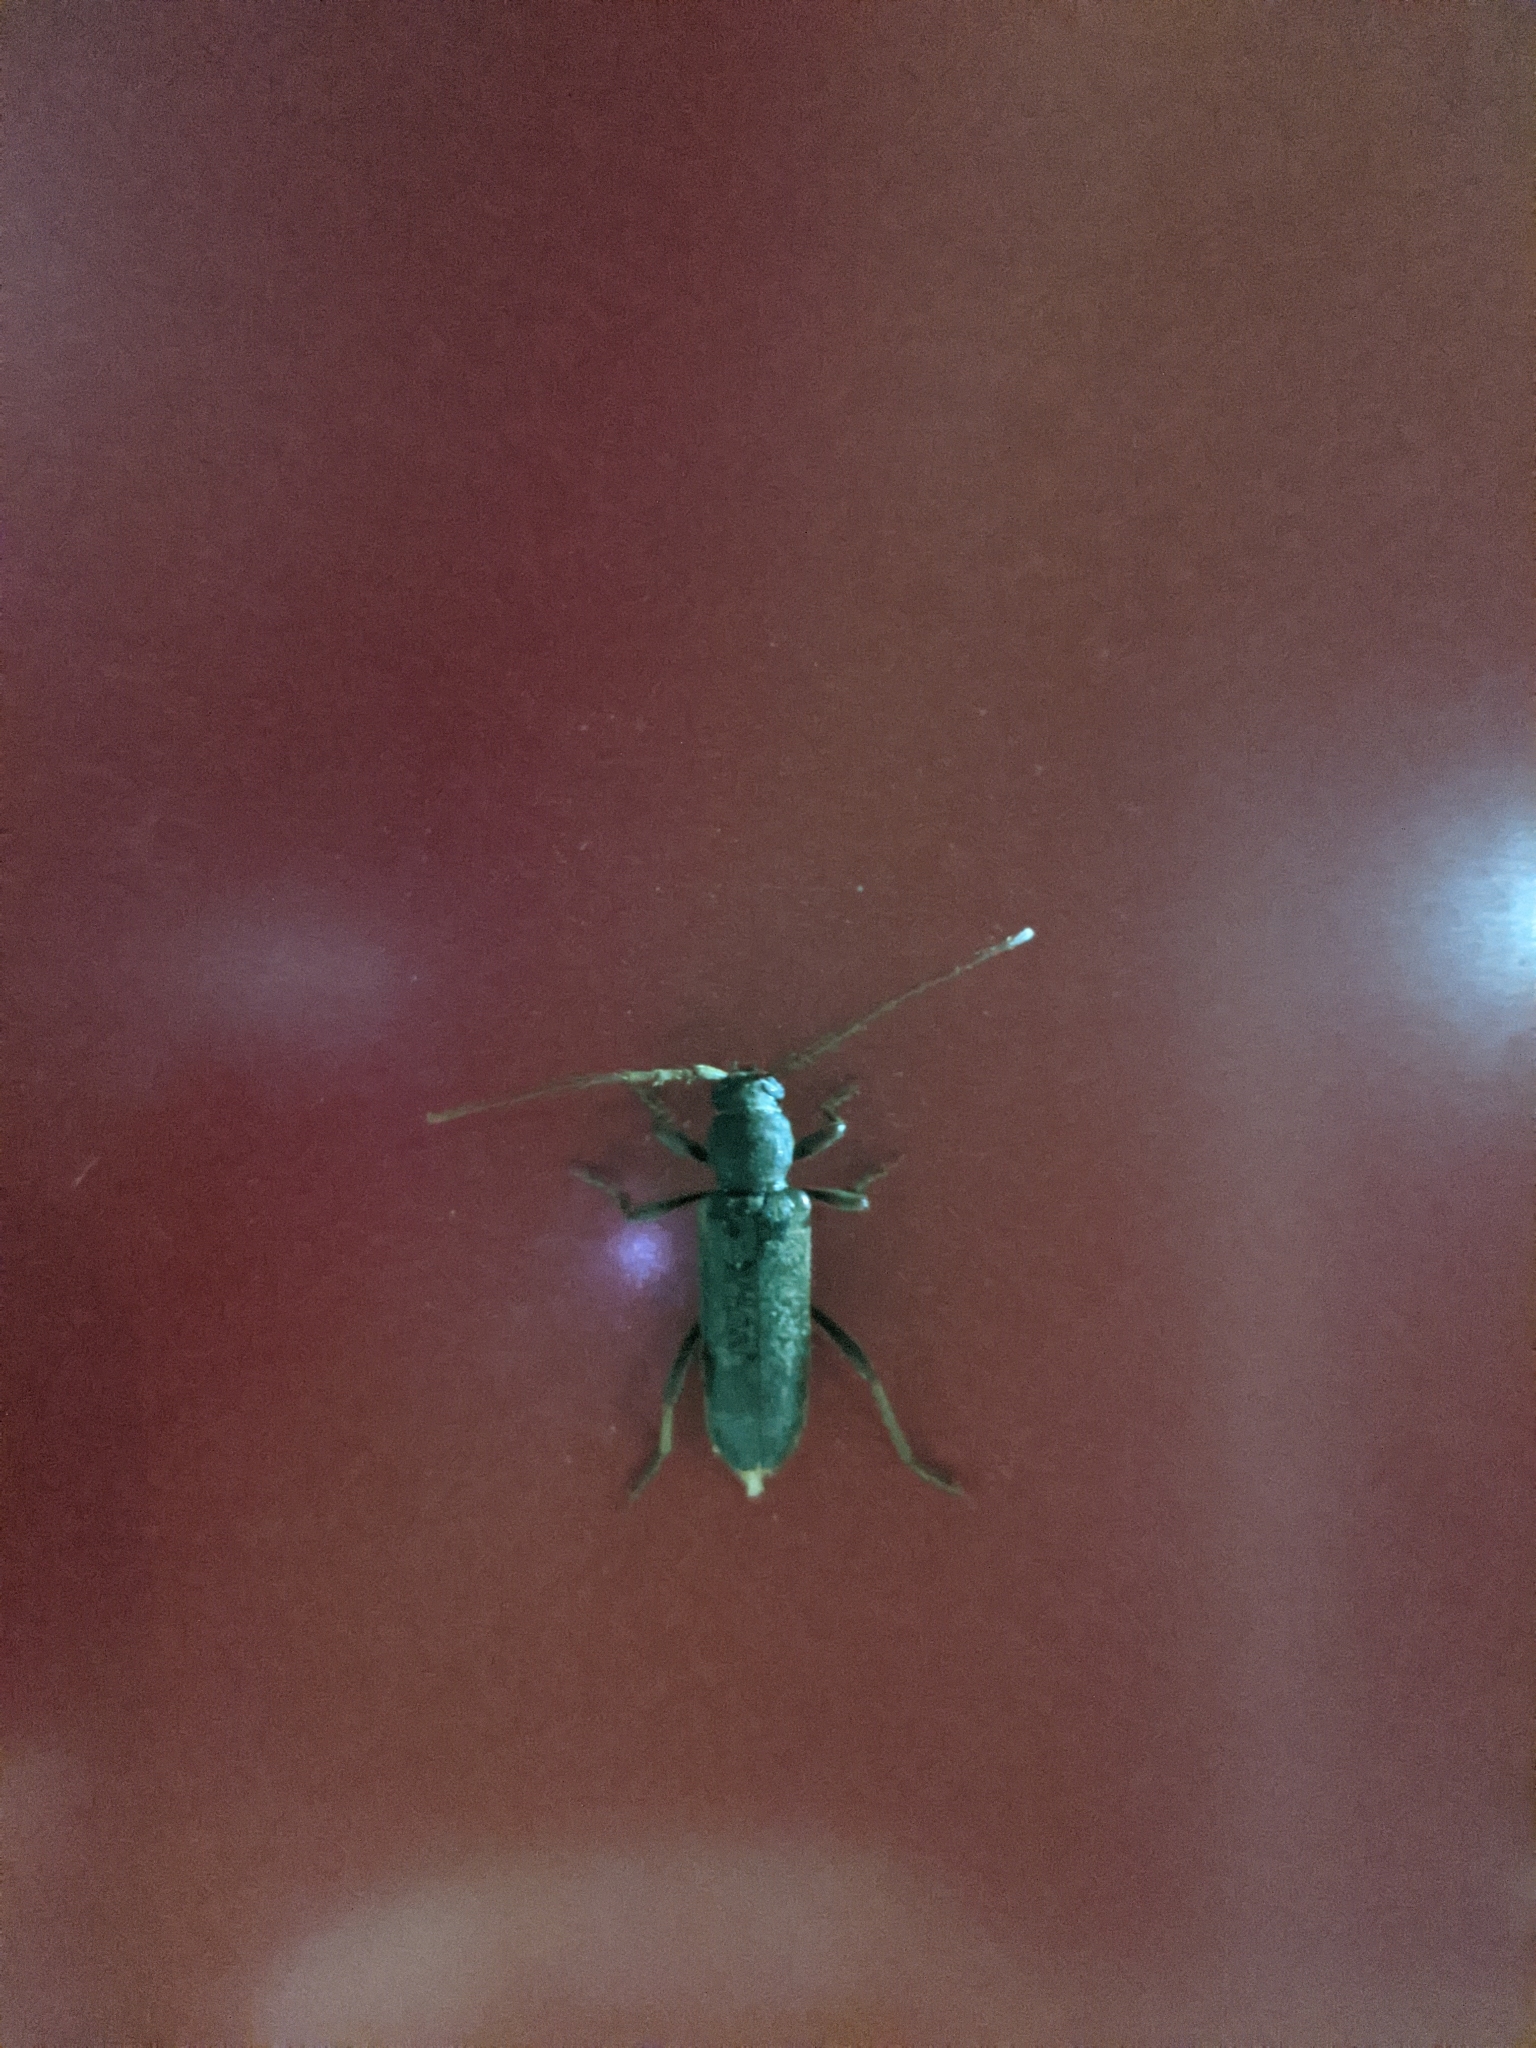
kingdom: Animalia
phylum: Arthropoda
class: Insecta
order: Coleoptera
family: Cerambycidae
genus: Trichoferus
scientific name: Trichoferus campestris
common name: Velvet long horned beetle
